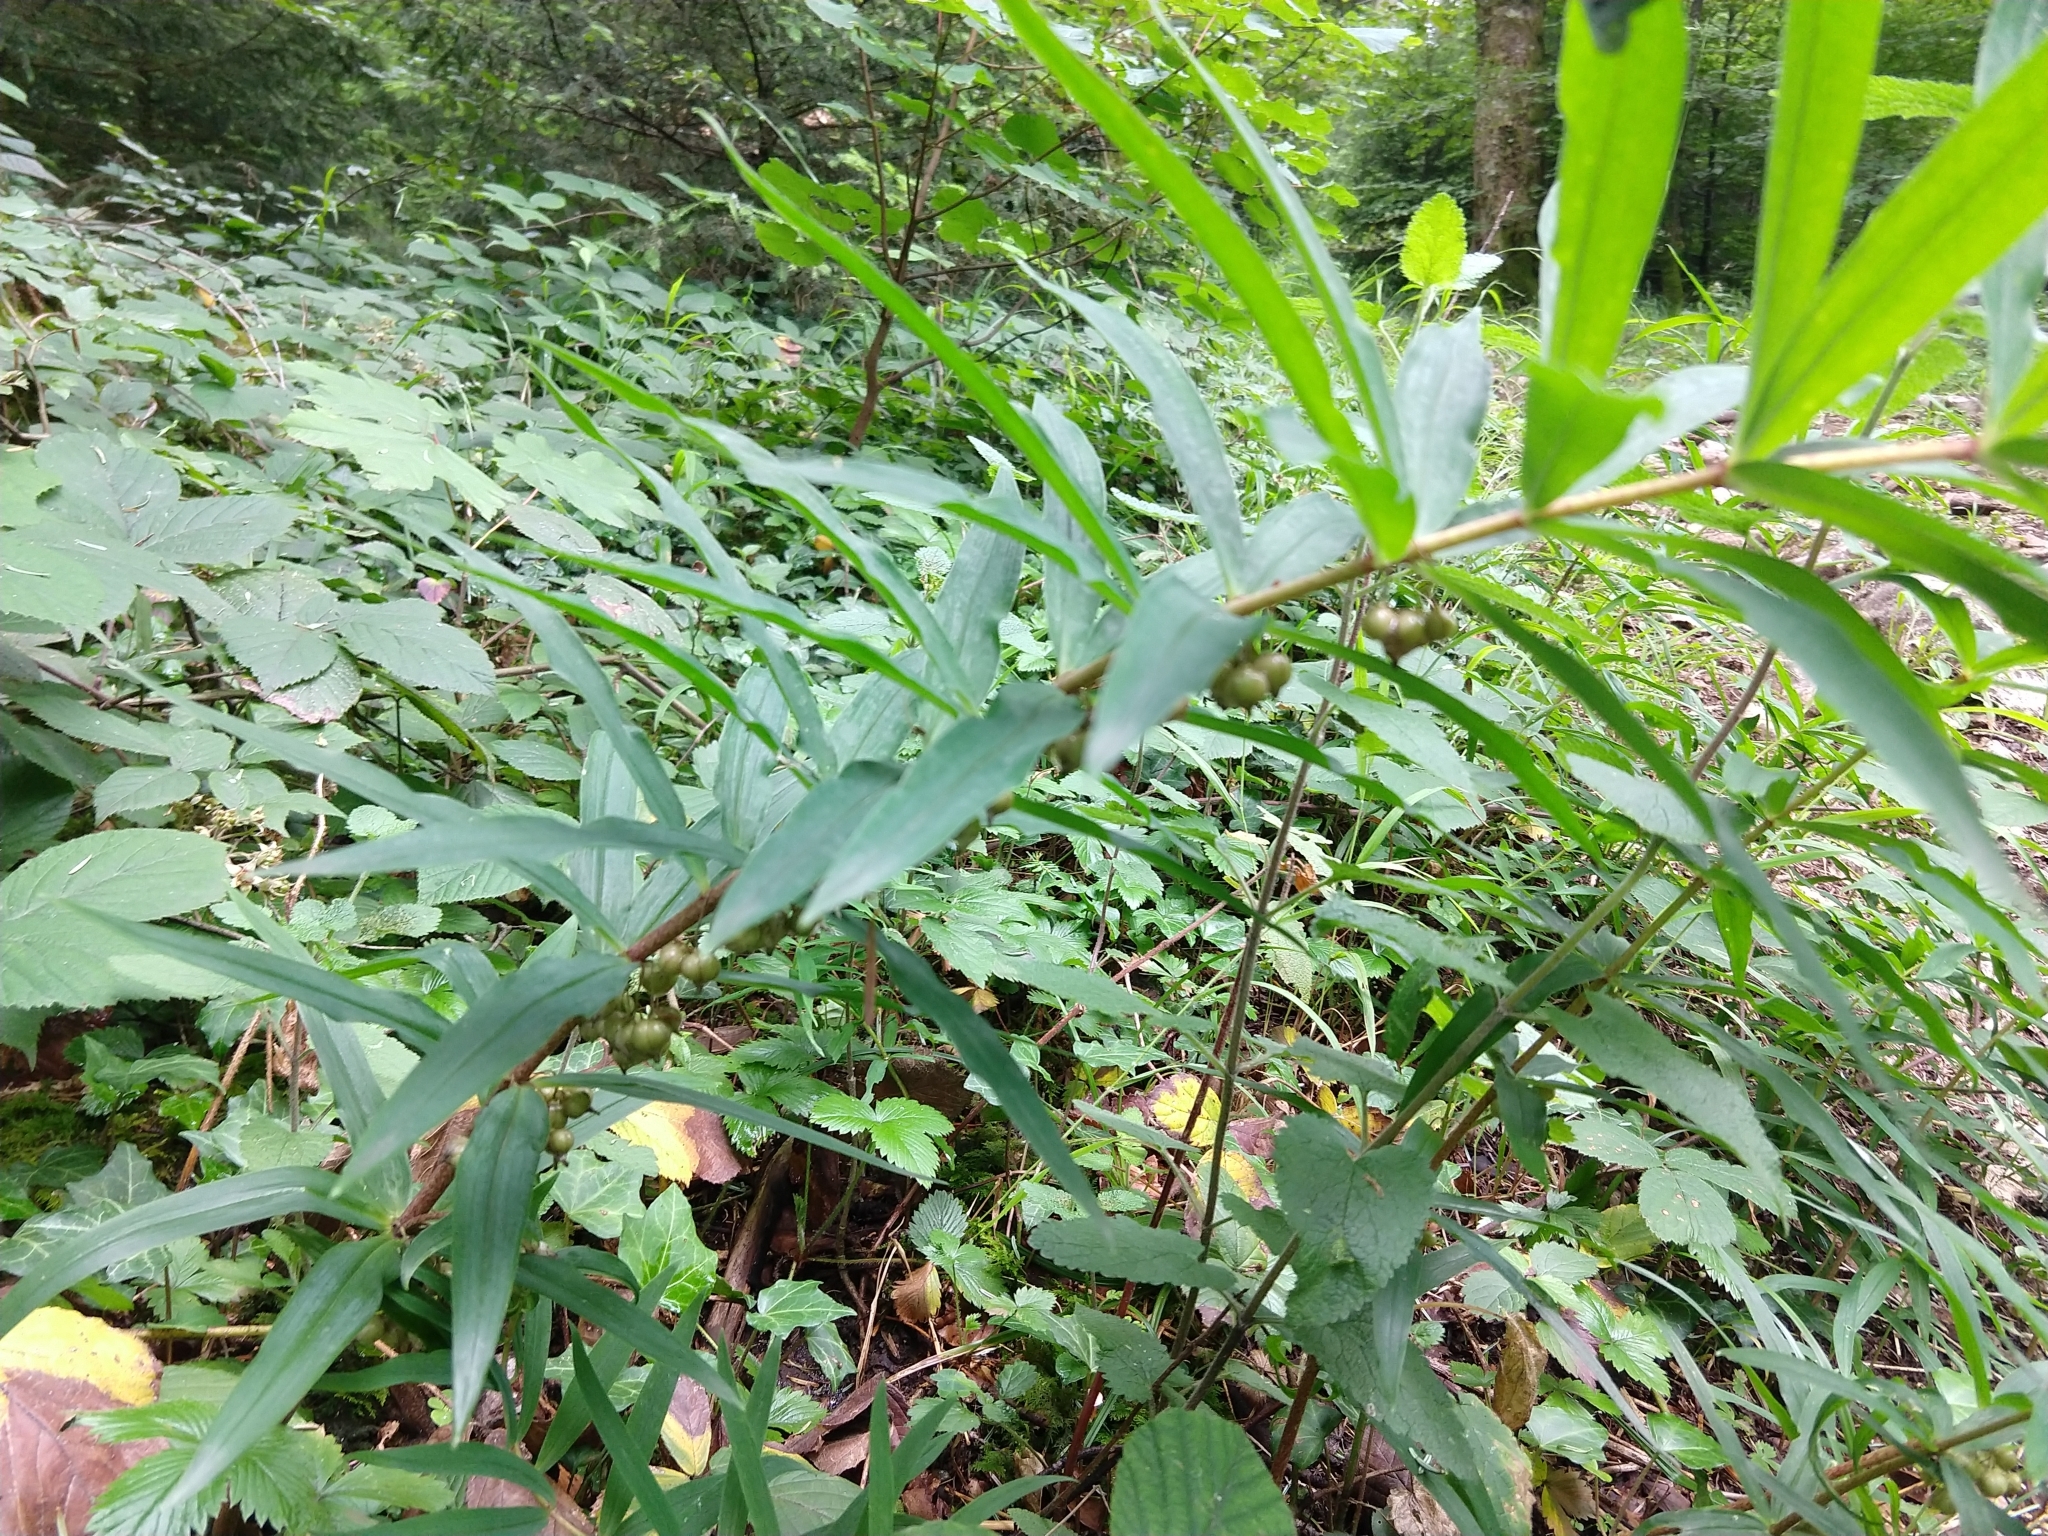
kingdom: Plantae
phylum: Tracheophyta
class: Liliopsida
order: Asparagales
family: Asparagaceae
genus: Polygonatum
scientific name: Polygonatum verticillatum
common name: Whorled solomon's-seal
